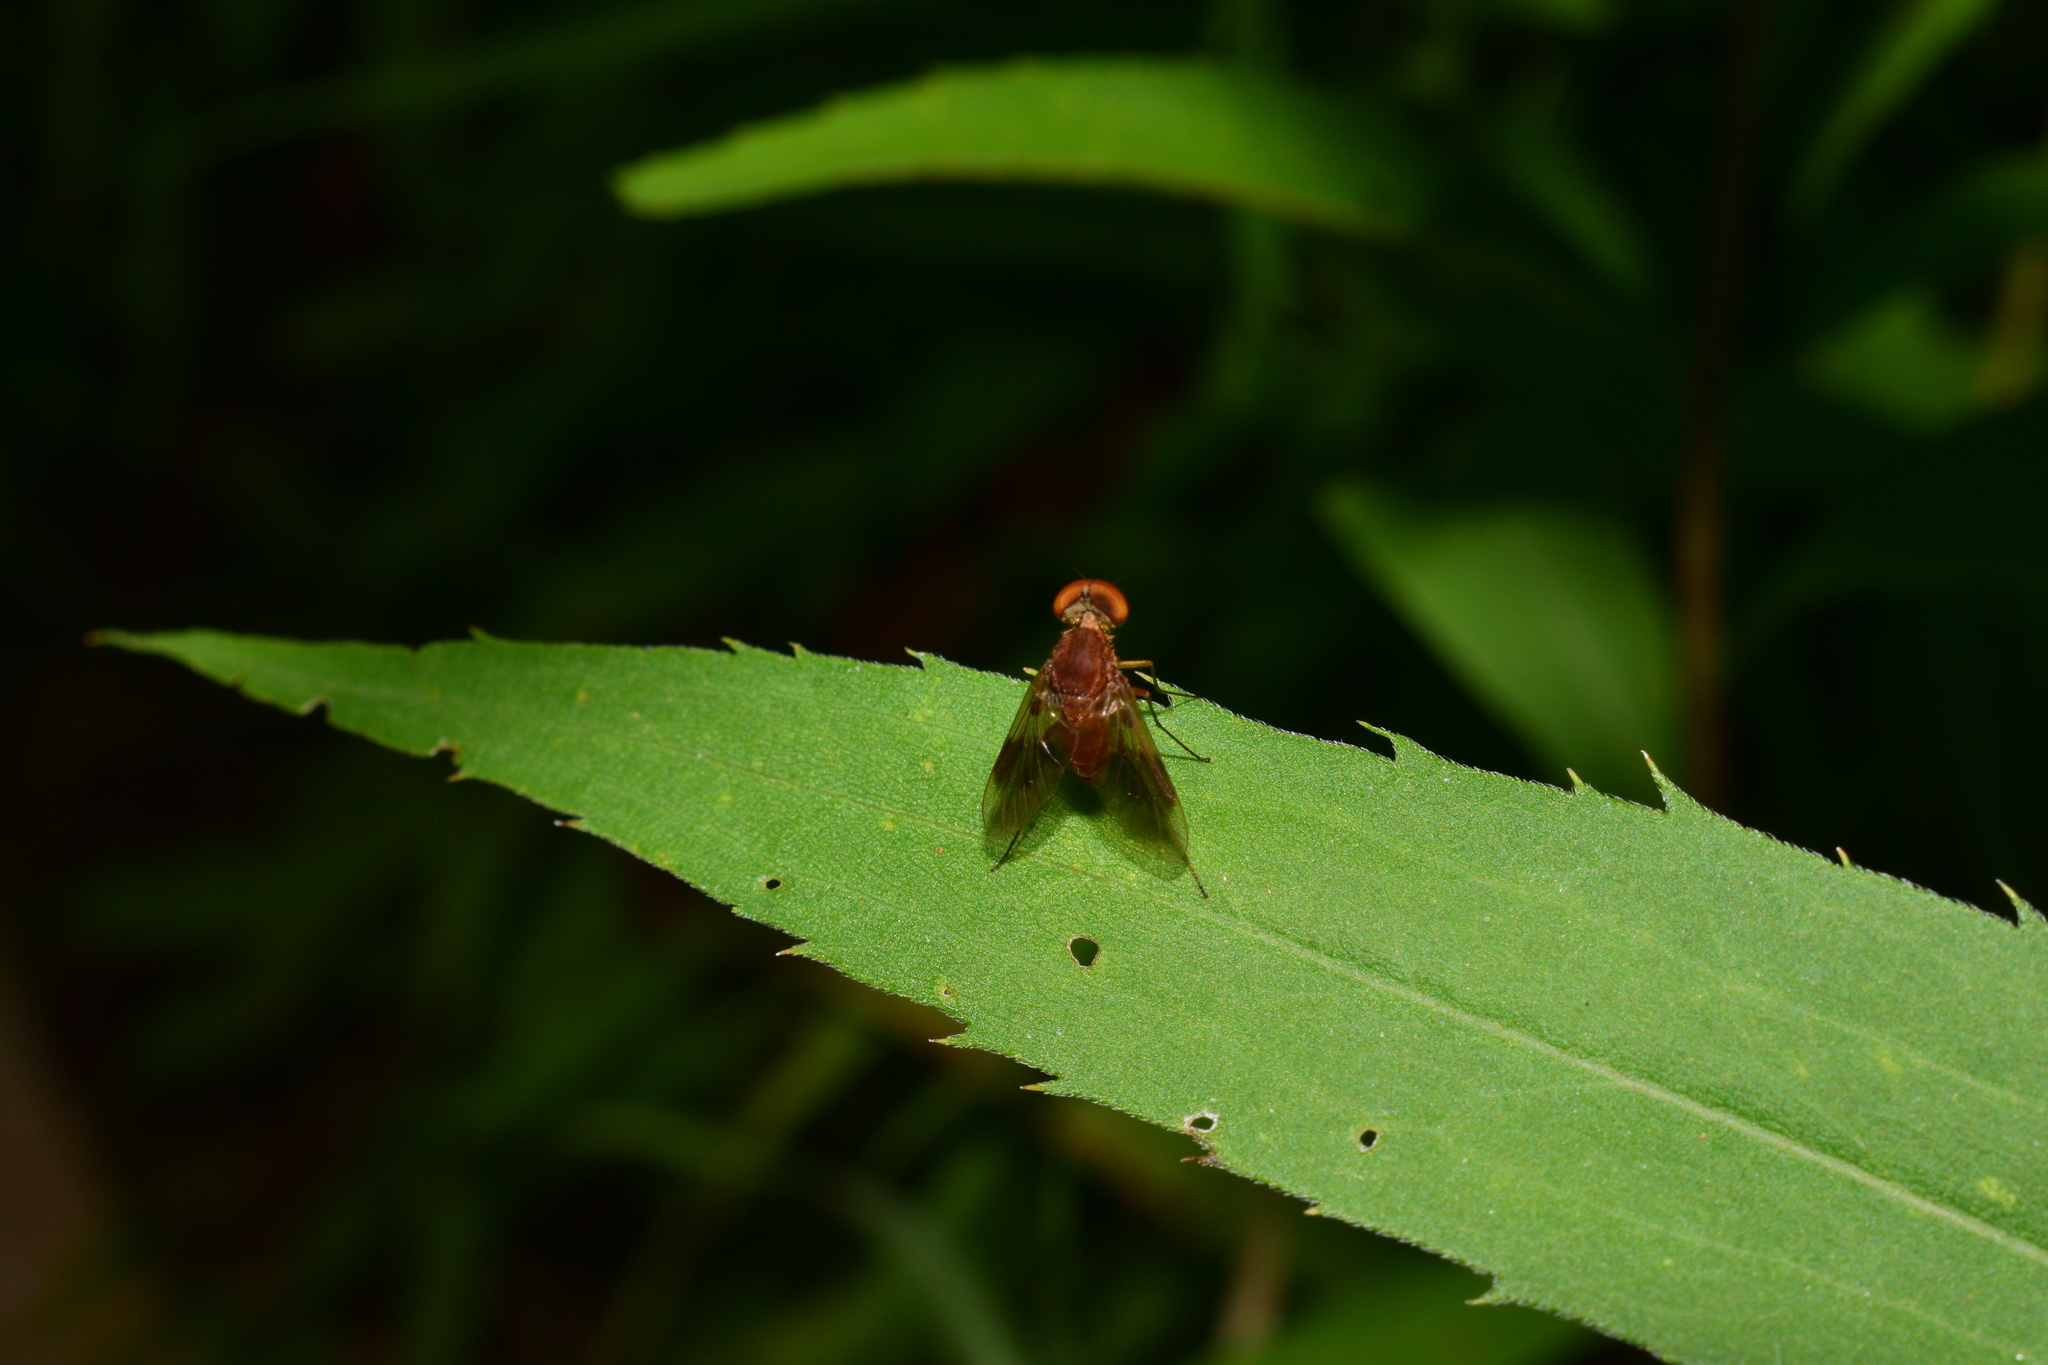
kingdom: Animalia
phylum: Arthropoda
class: Insecta
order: Diptera
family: Rhagionidae
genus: Chrysopilus
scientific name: Chrysopilus quadratus
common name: Quadrate snipe fly
